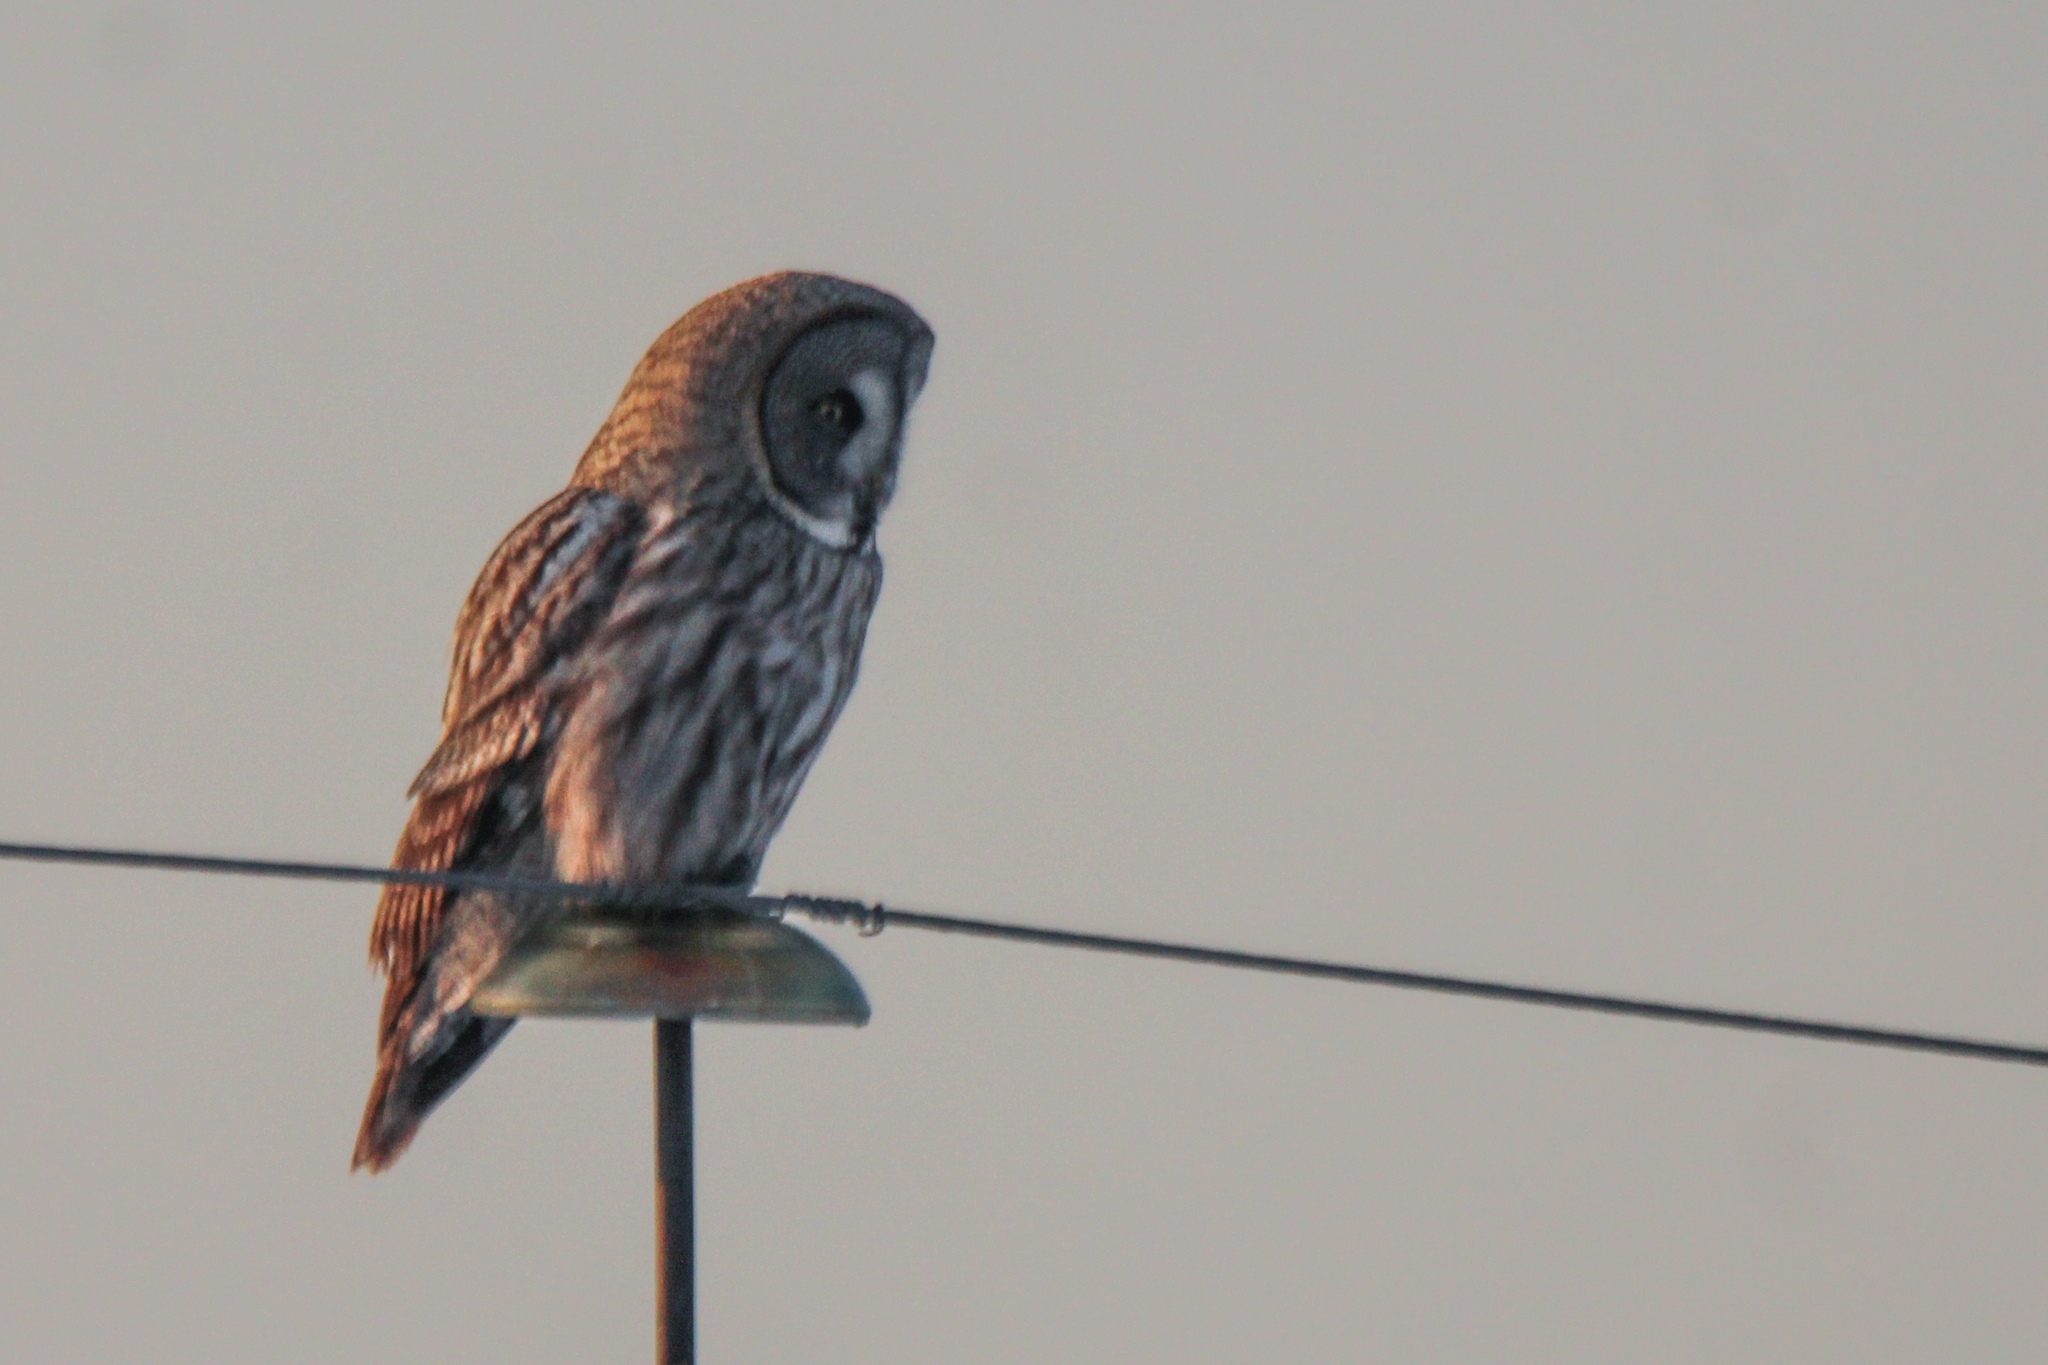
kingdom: Animalia
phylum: Chordata
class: Aves
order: Strigiformes
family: Strigidae
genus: Strix
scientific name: Strix nebulosa
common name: Great grey owl
